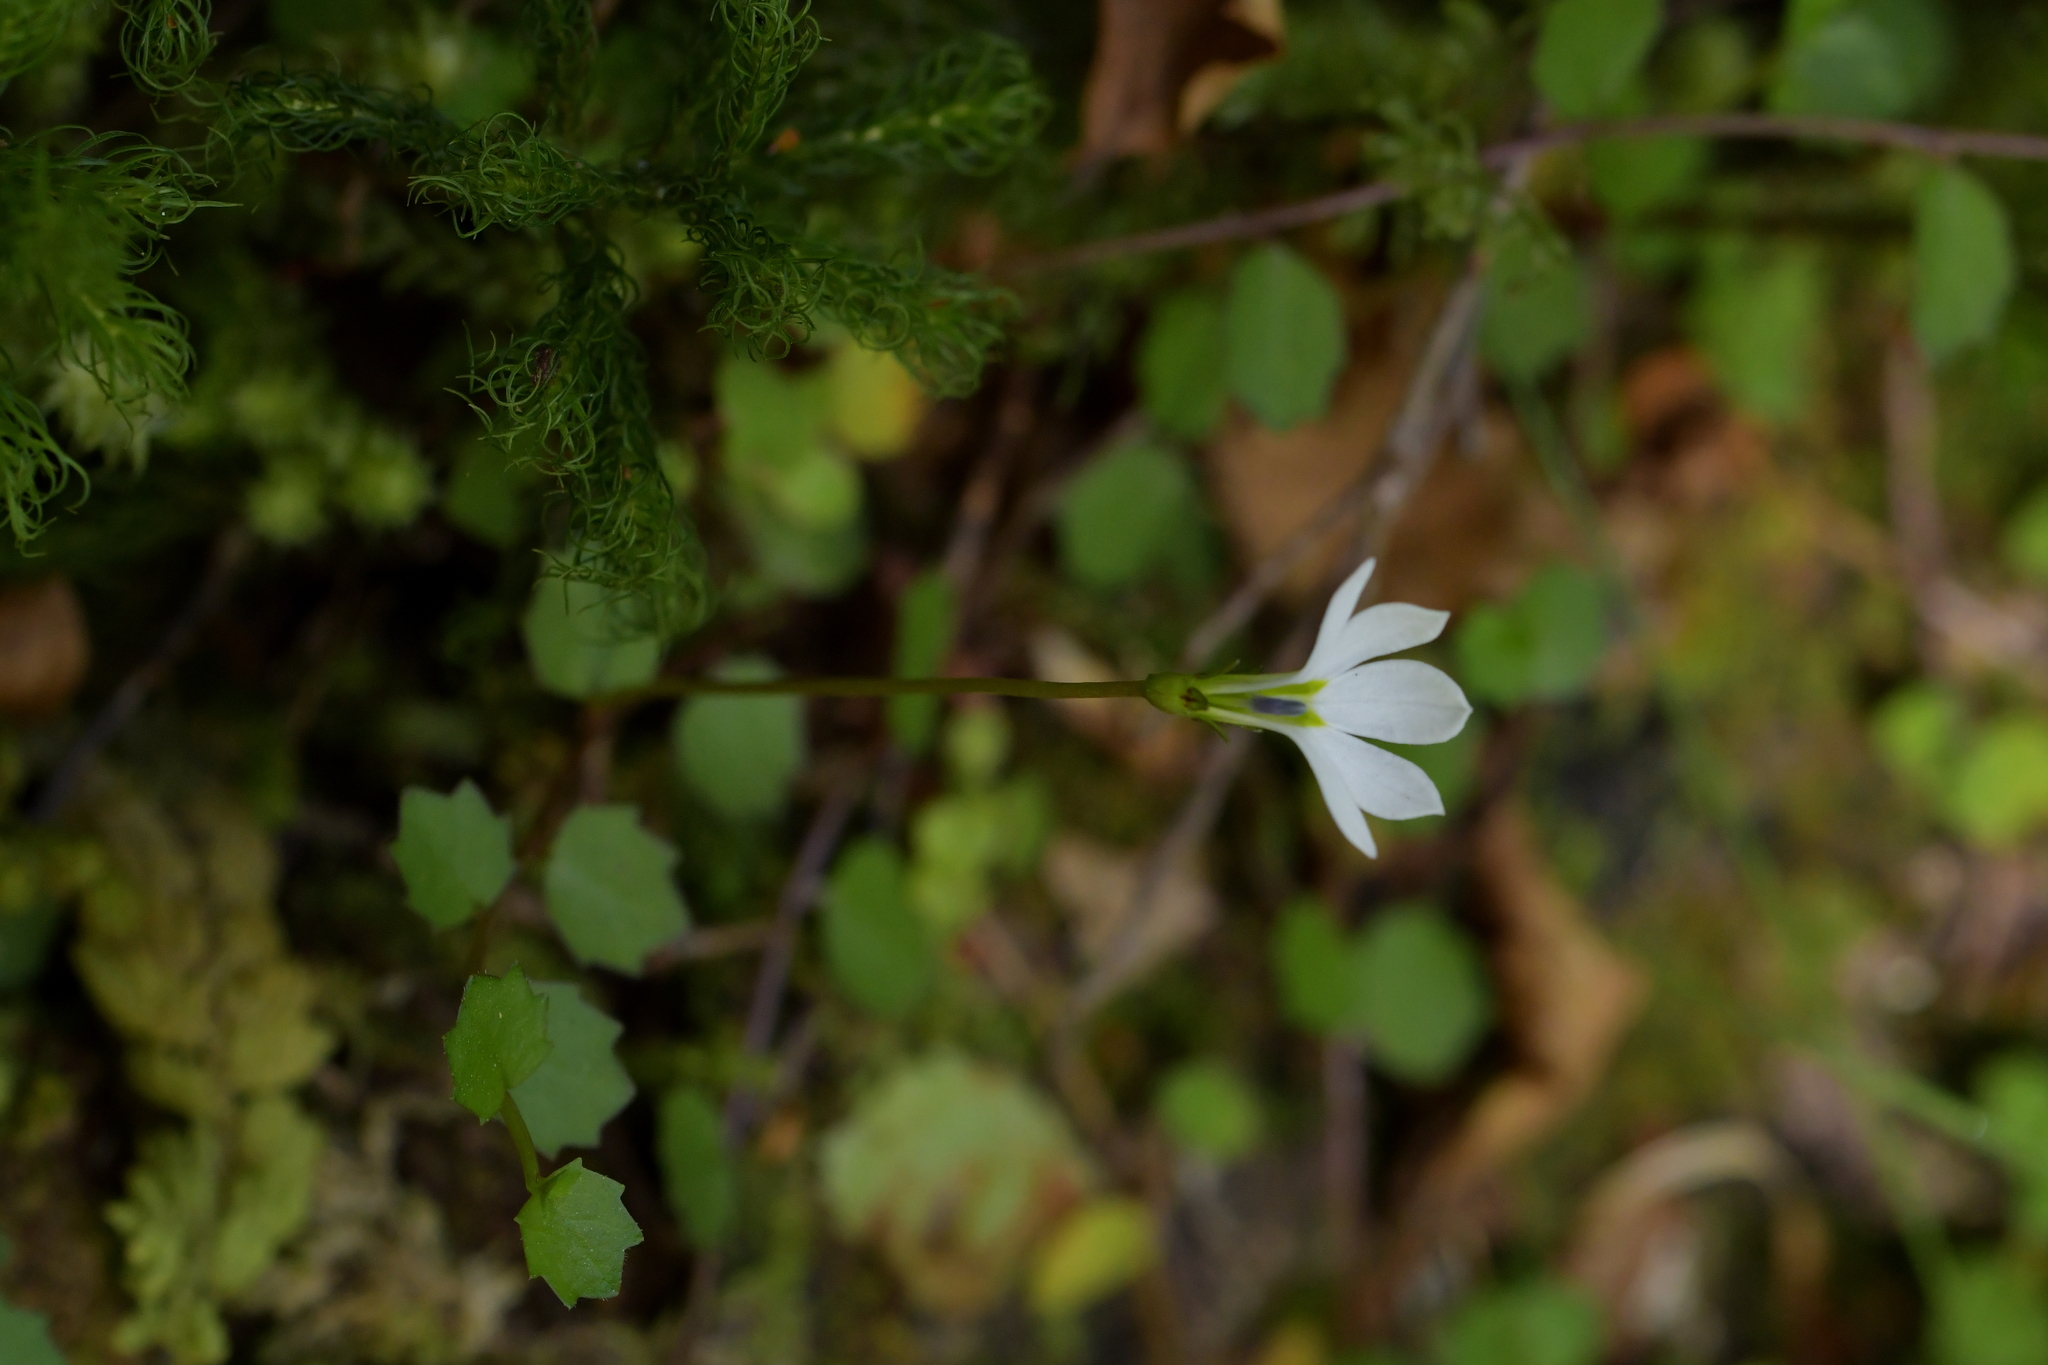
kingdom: Plantae
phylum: Tracheophyta
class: Magnoliopsida
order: Asterales
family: Campanulaceae
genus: Lobelia
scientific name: Lobelia angulata
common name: Lawn lobelia
